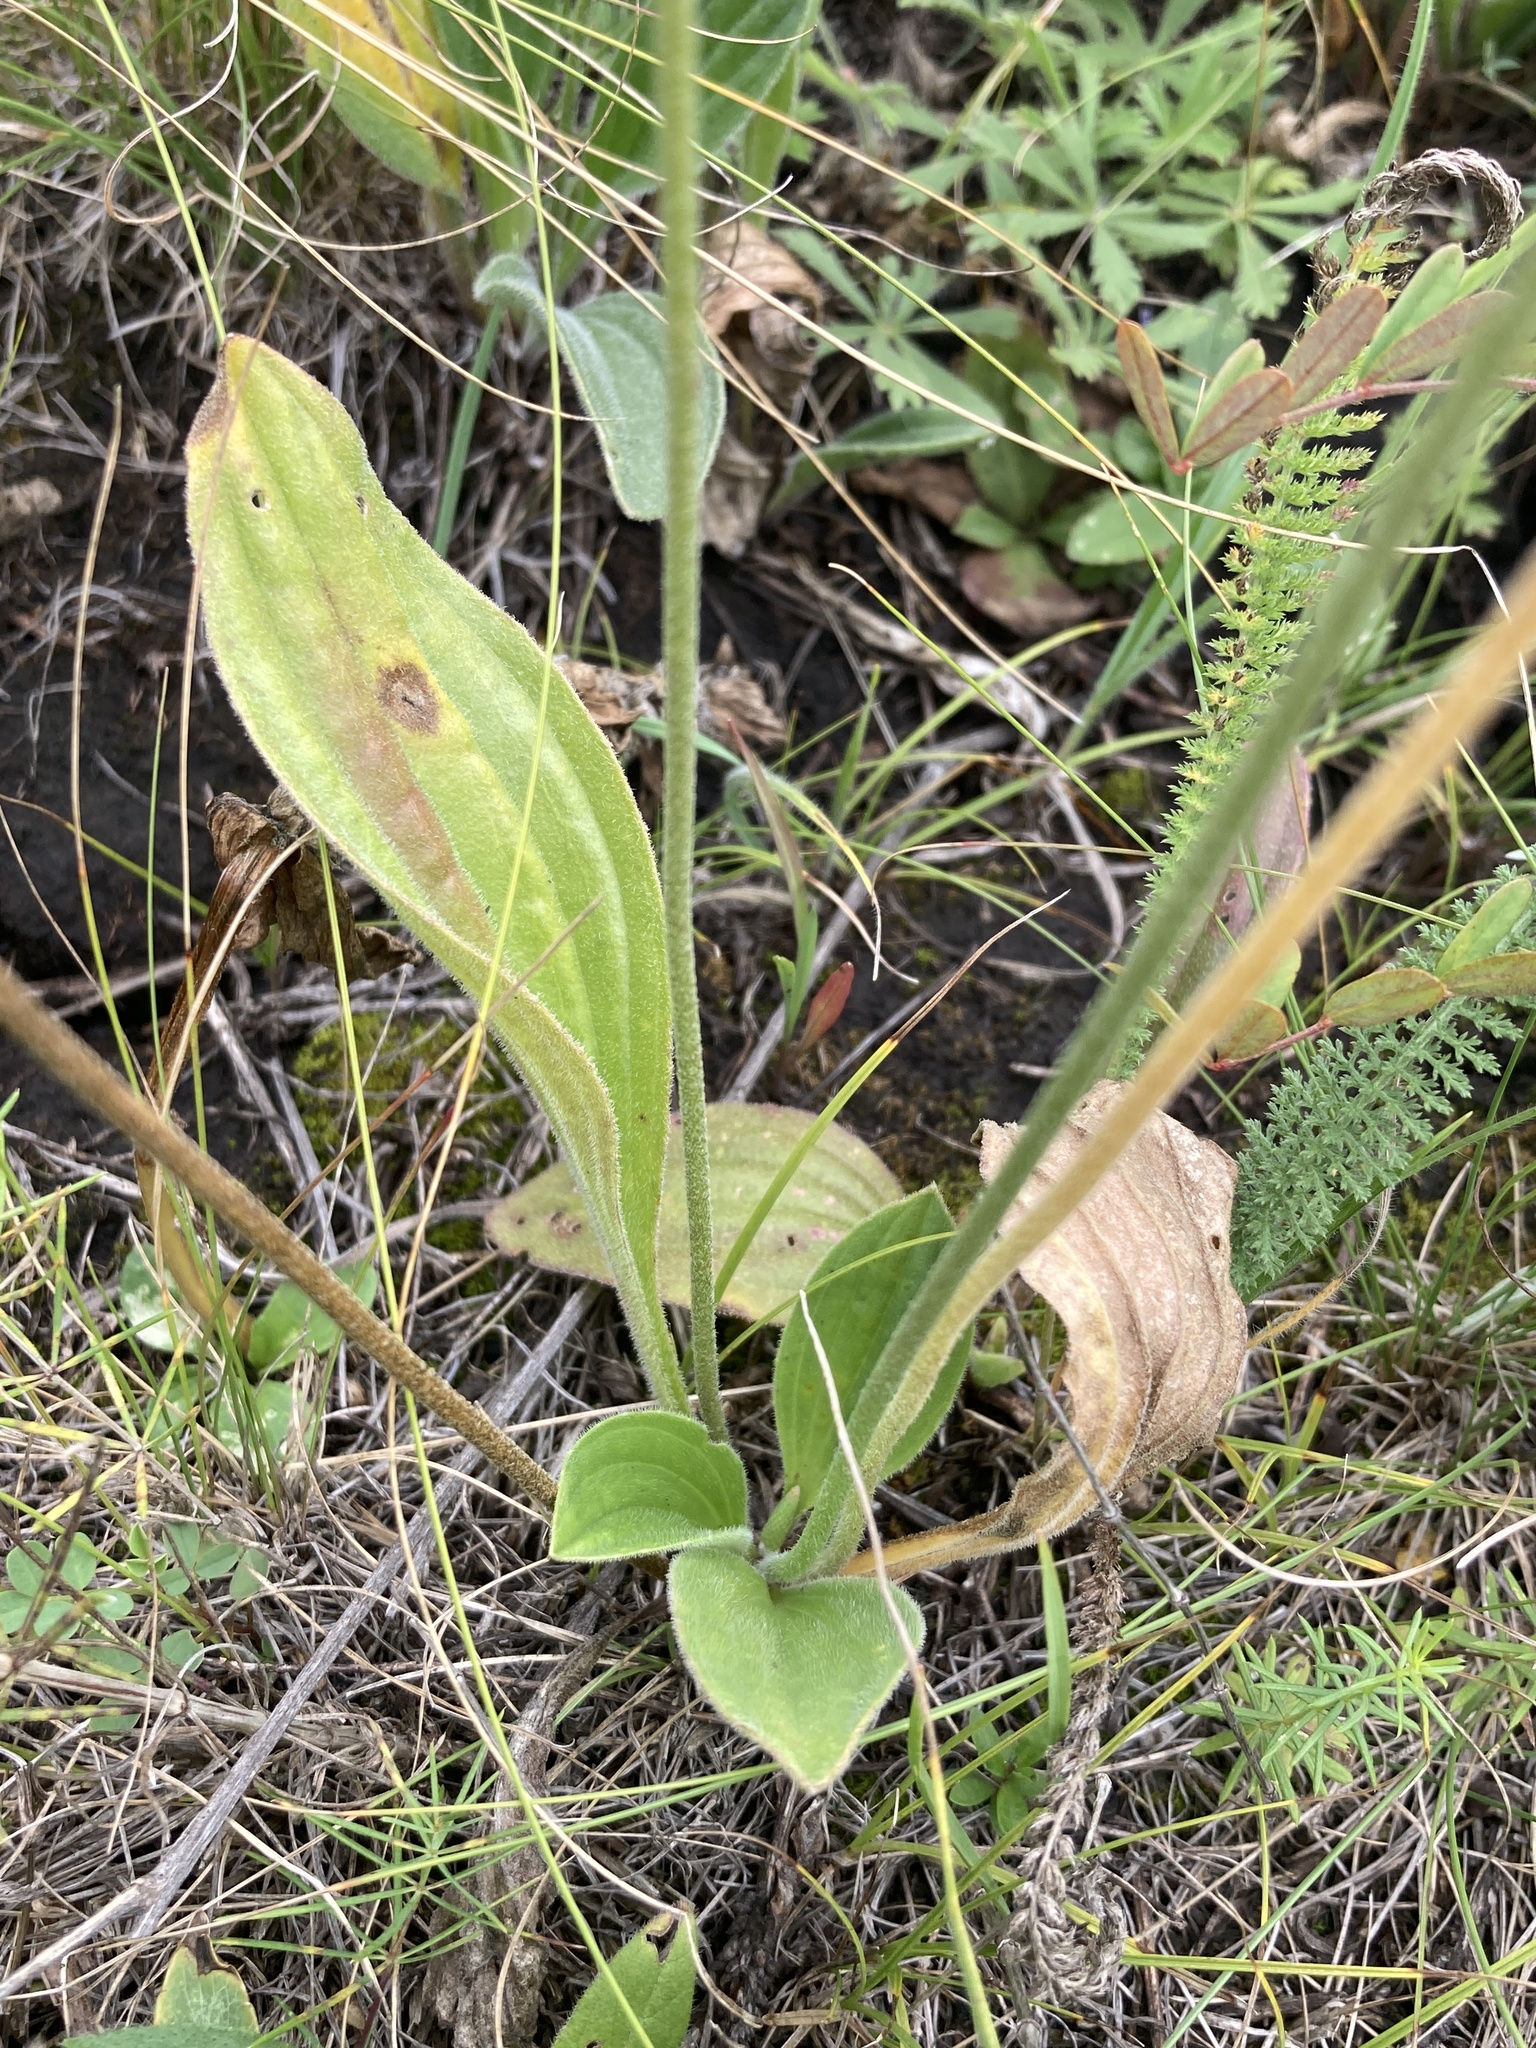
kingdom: Plantae
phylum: Tracheophyta
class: Magnoliopsida
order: Lamiales
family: Plantaginaceae
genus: Plantago
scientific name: Plantago media
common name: Hoary plantain
